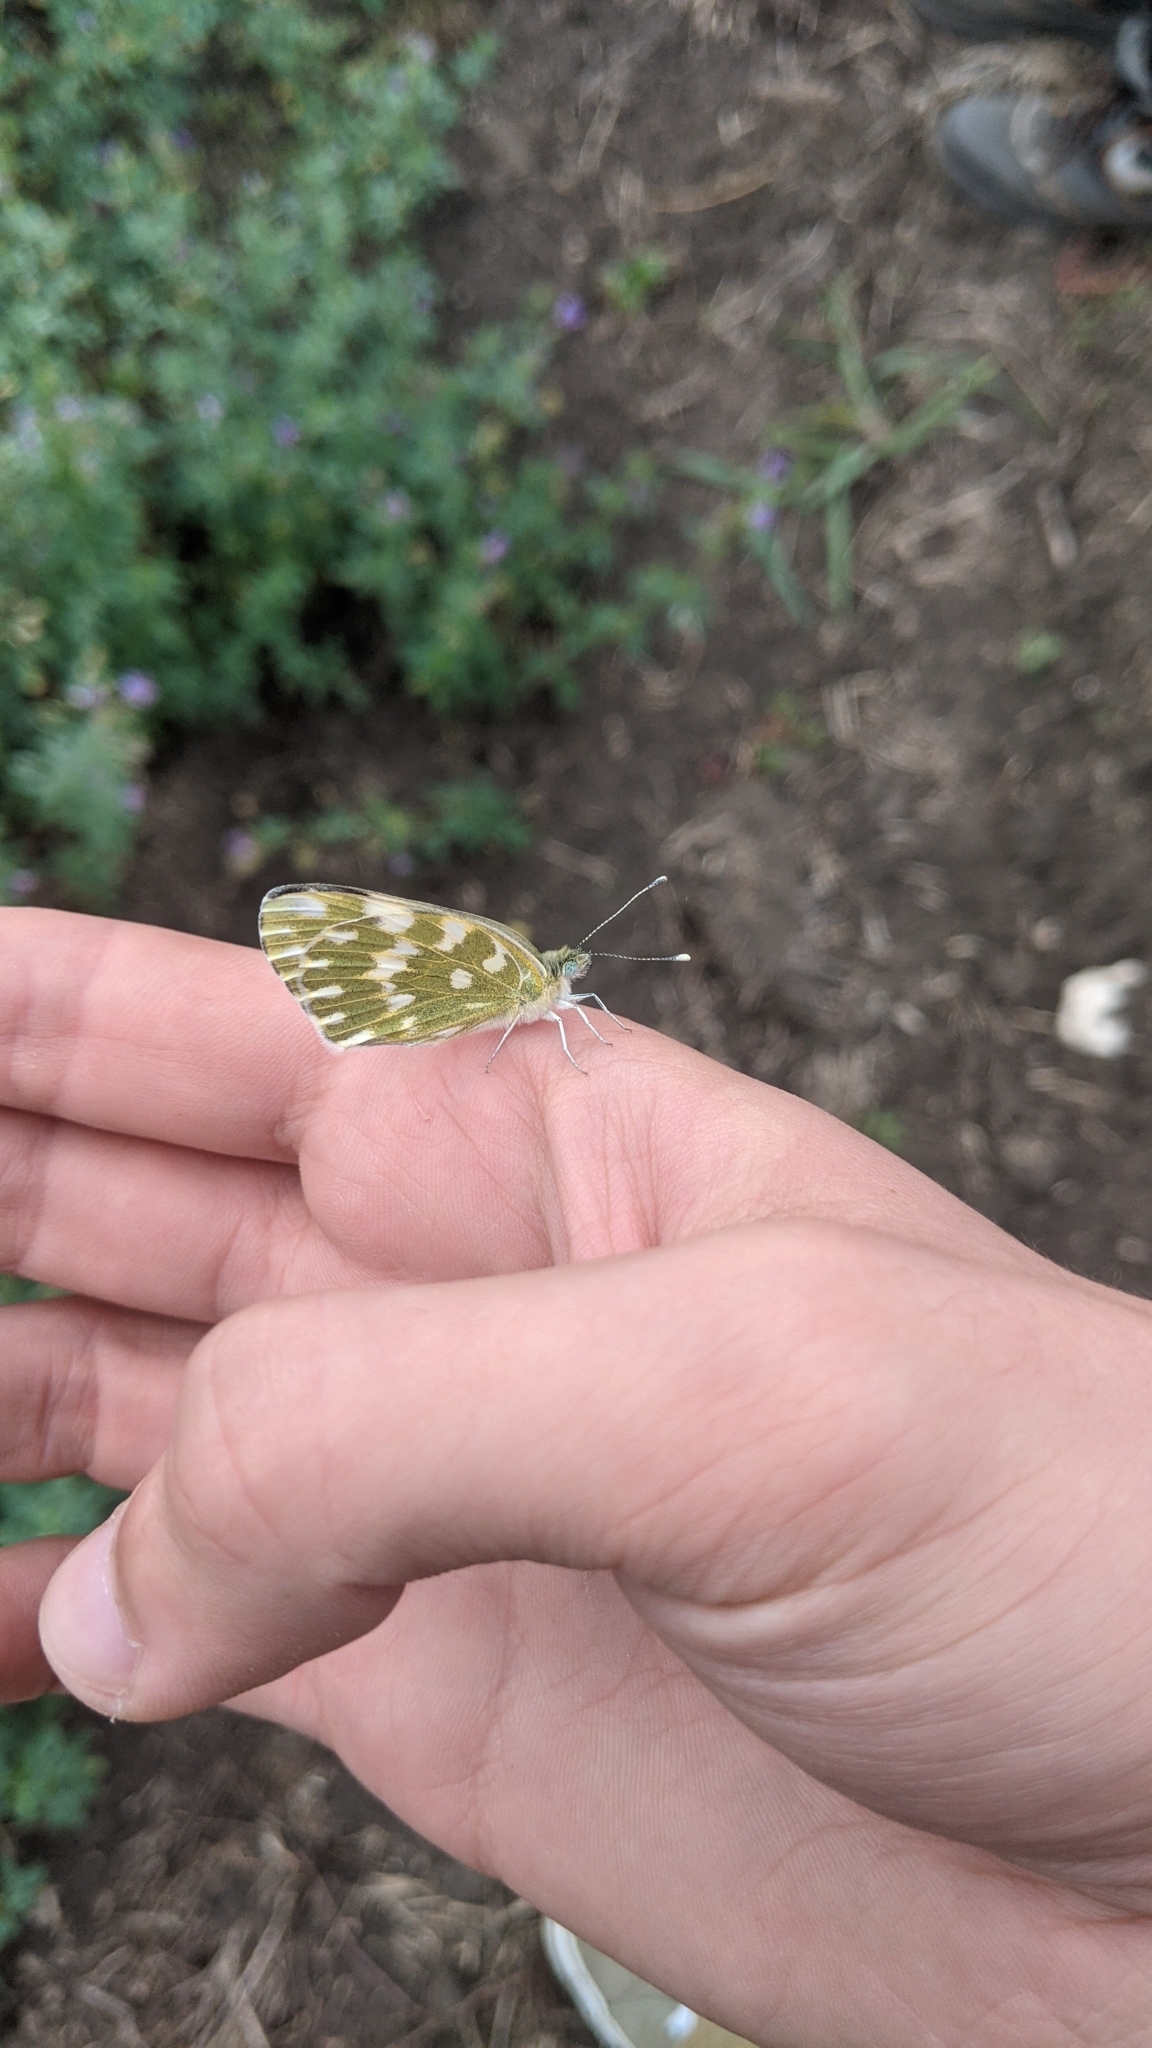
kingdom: Animalia
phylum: Arthropoda
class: Insecta
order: Lepidoptera
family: Pieridae
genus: Pontia
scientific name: Pontia edusa
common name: Eastern bath white
